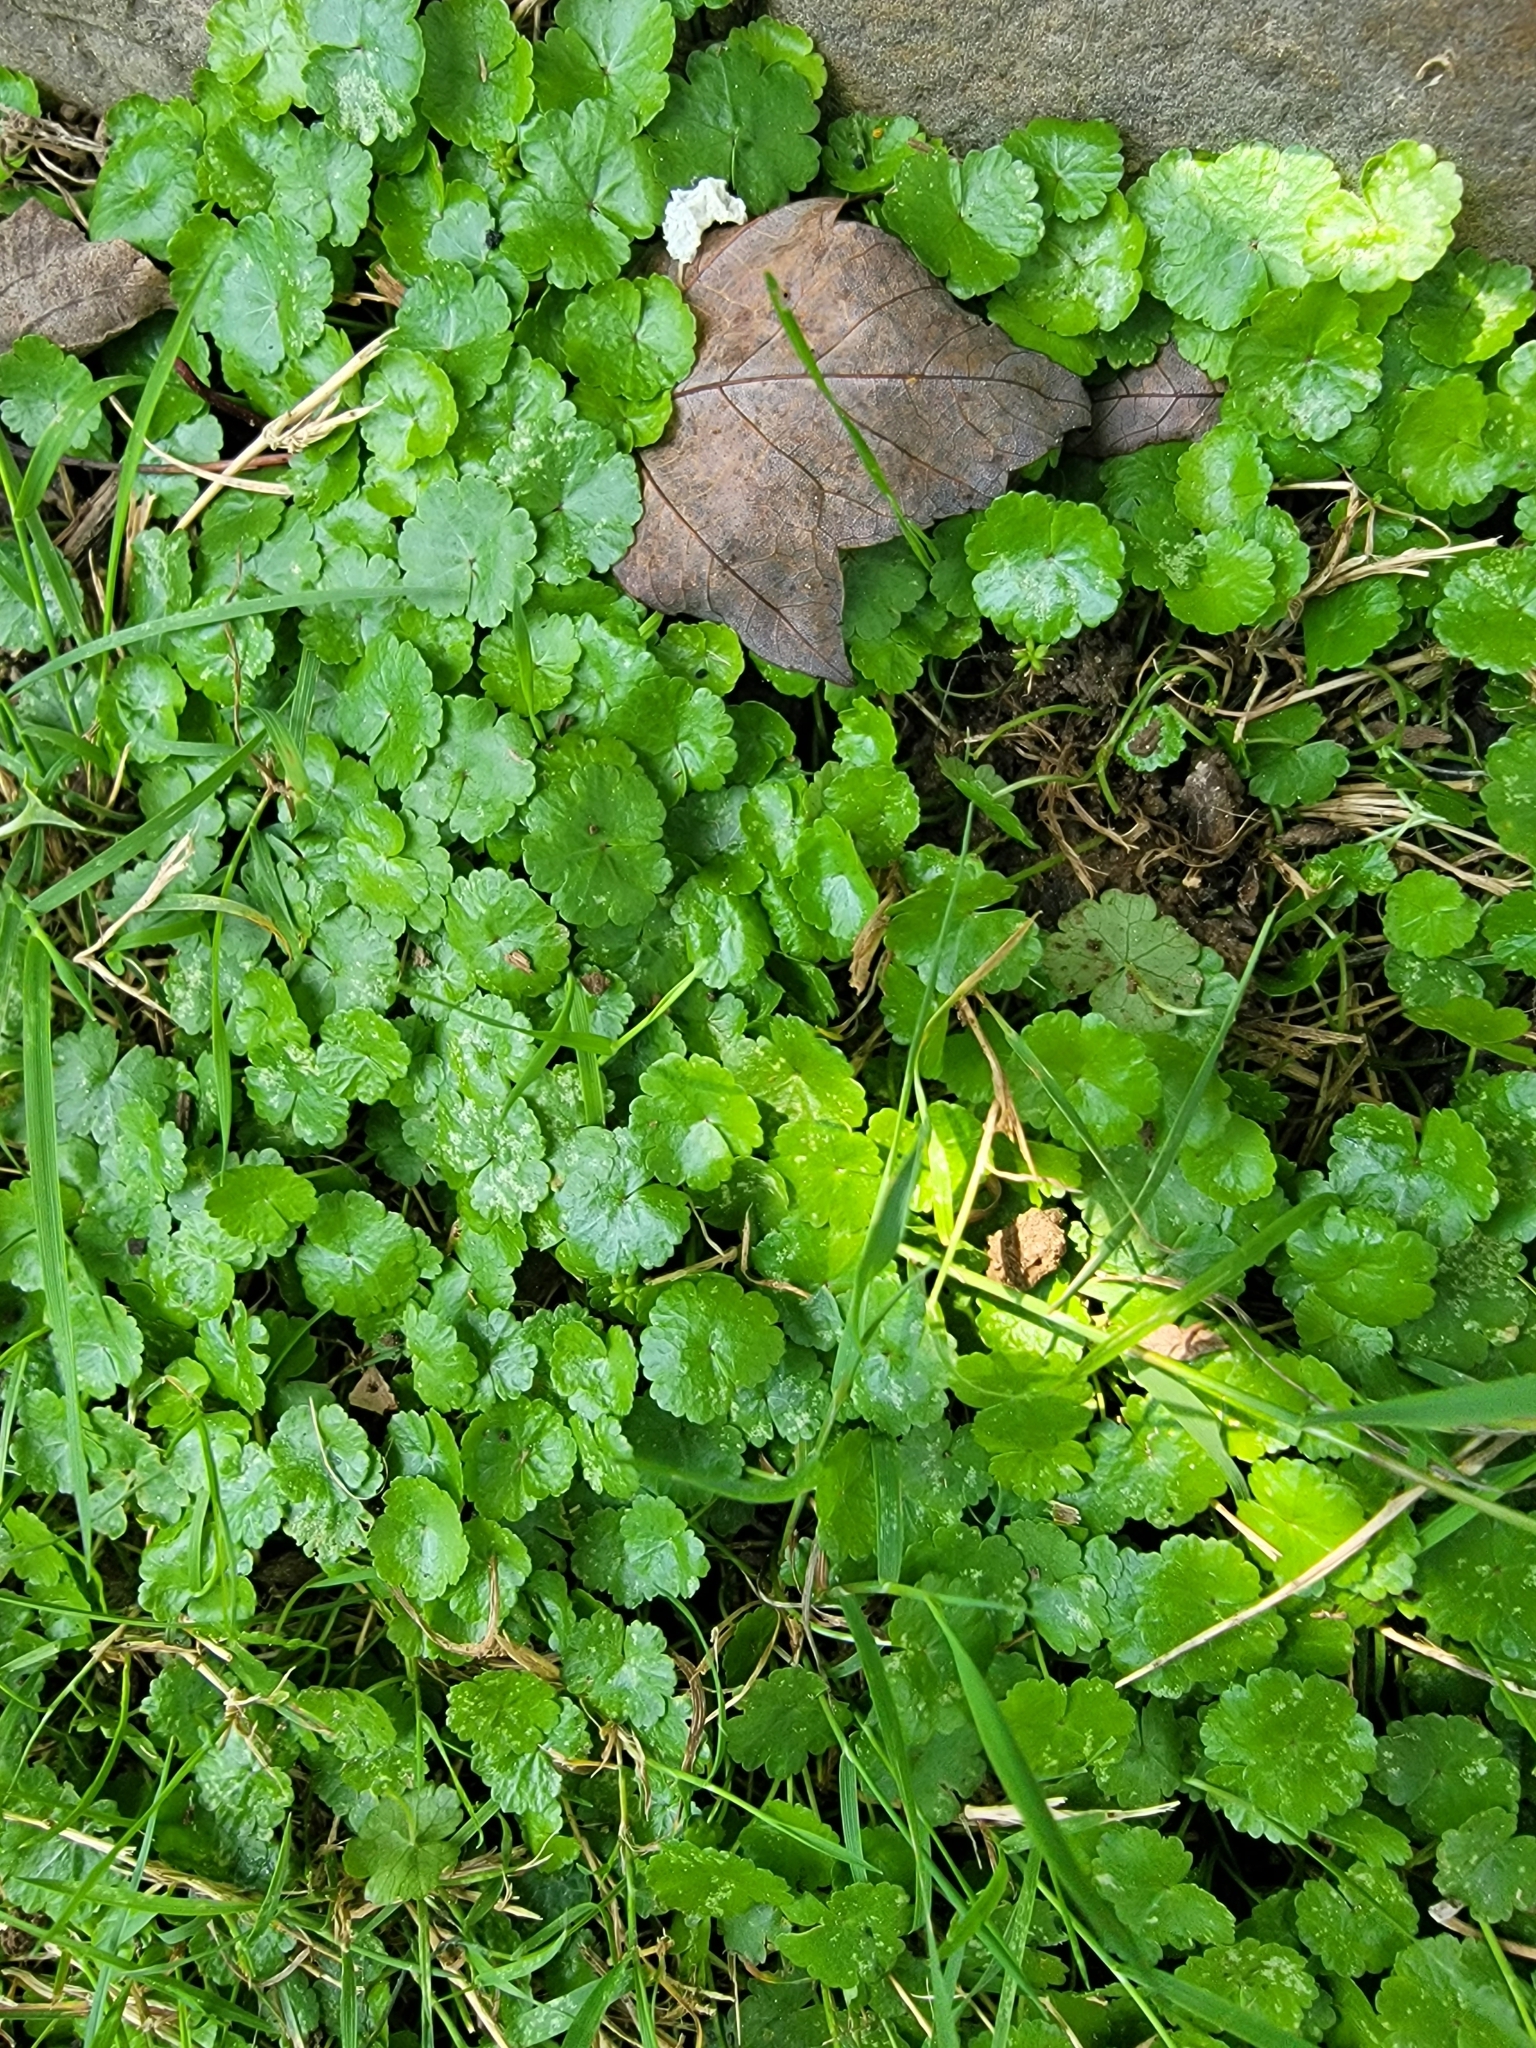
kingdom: Plantae
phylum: Tracheophyta
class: Magnoliopsida
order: Apiales
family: Araliaceae
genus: Hydrocotyle
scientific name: Hydrocotyle sibthorpioides
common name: Lawn marshpennywort
